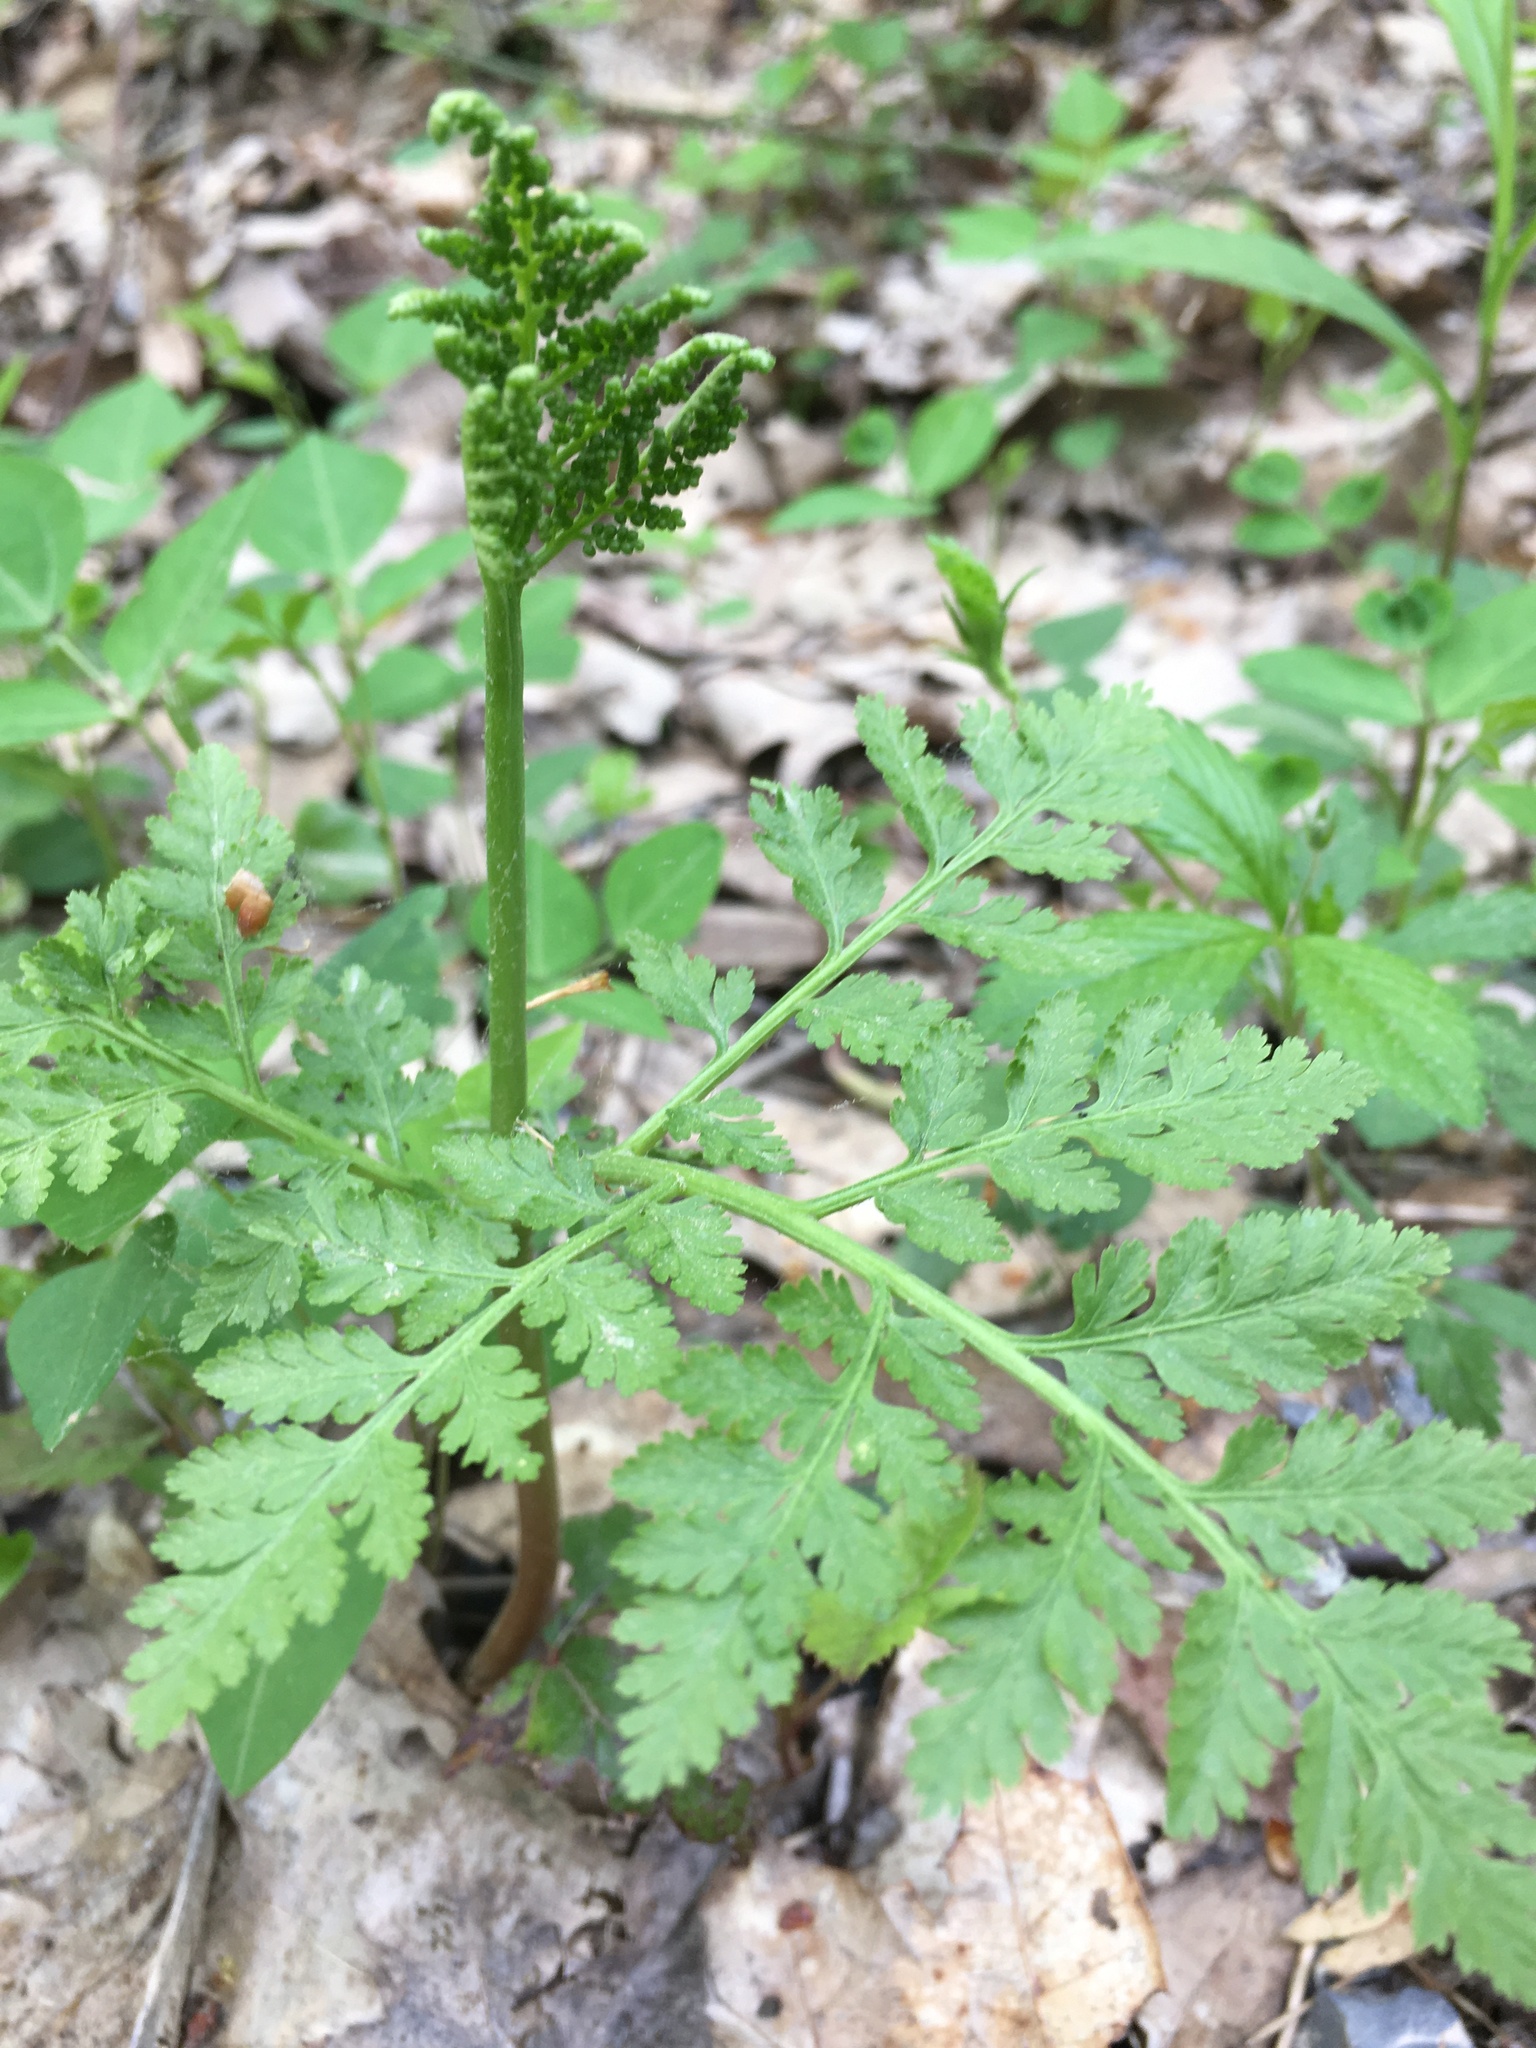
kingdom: Plantae
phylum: Tracheophyta
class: Polypodiopsida
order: Ophioglossales
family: Ophioglossaceae
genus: Botrypus
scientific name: Botrypus virginianus
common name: Common grapefern
